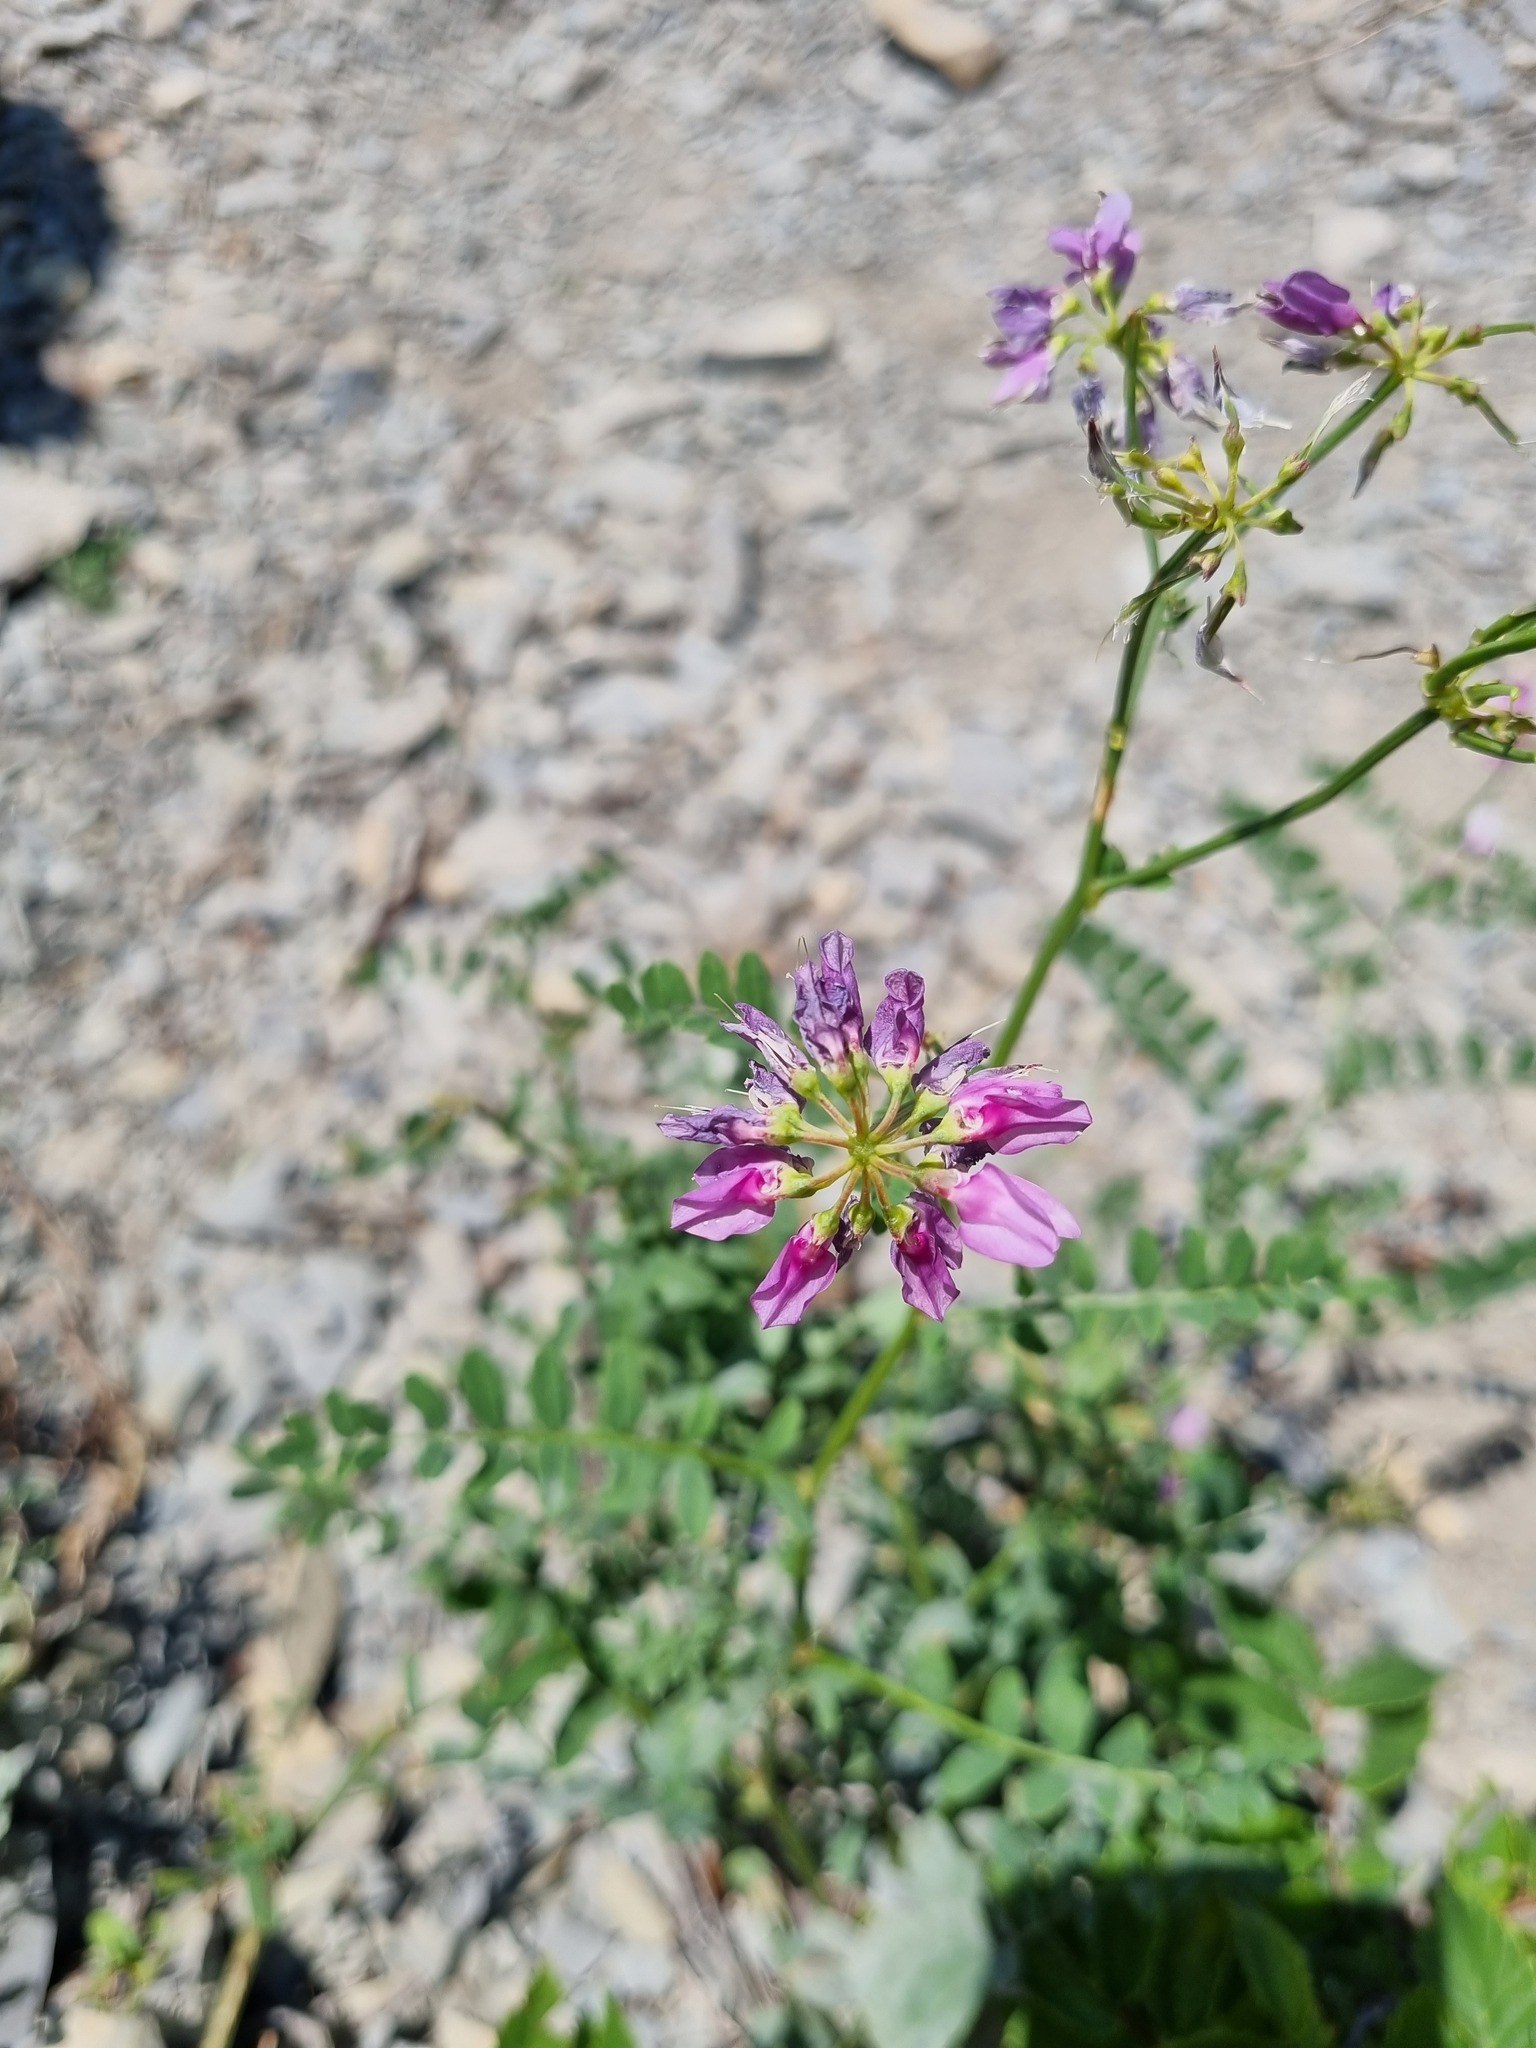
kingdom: Plantae
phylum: Tracheophyta
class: Magnoliopsida
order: Fabales
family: Fabaceae
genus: Coronilla
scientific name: Coronilla varia
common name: Crownvetch
